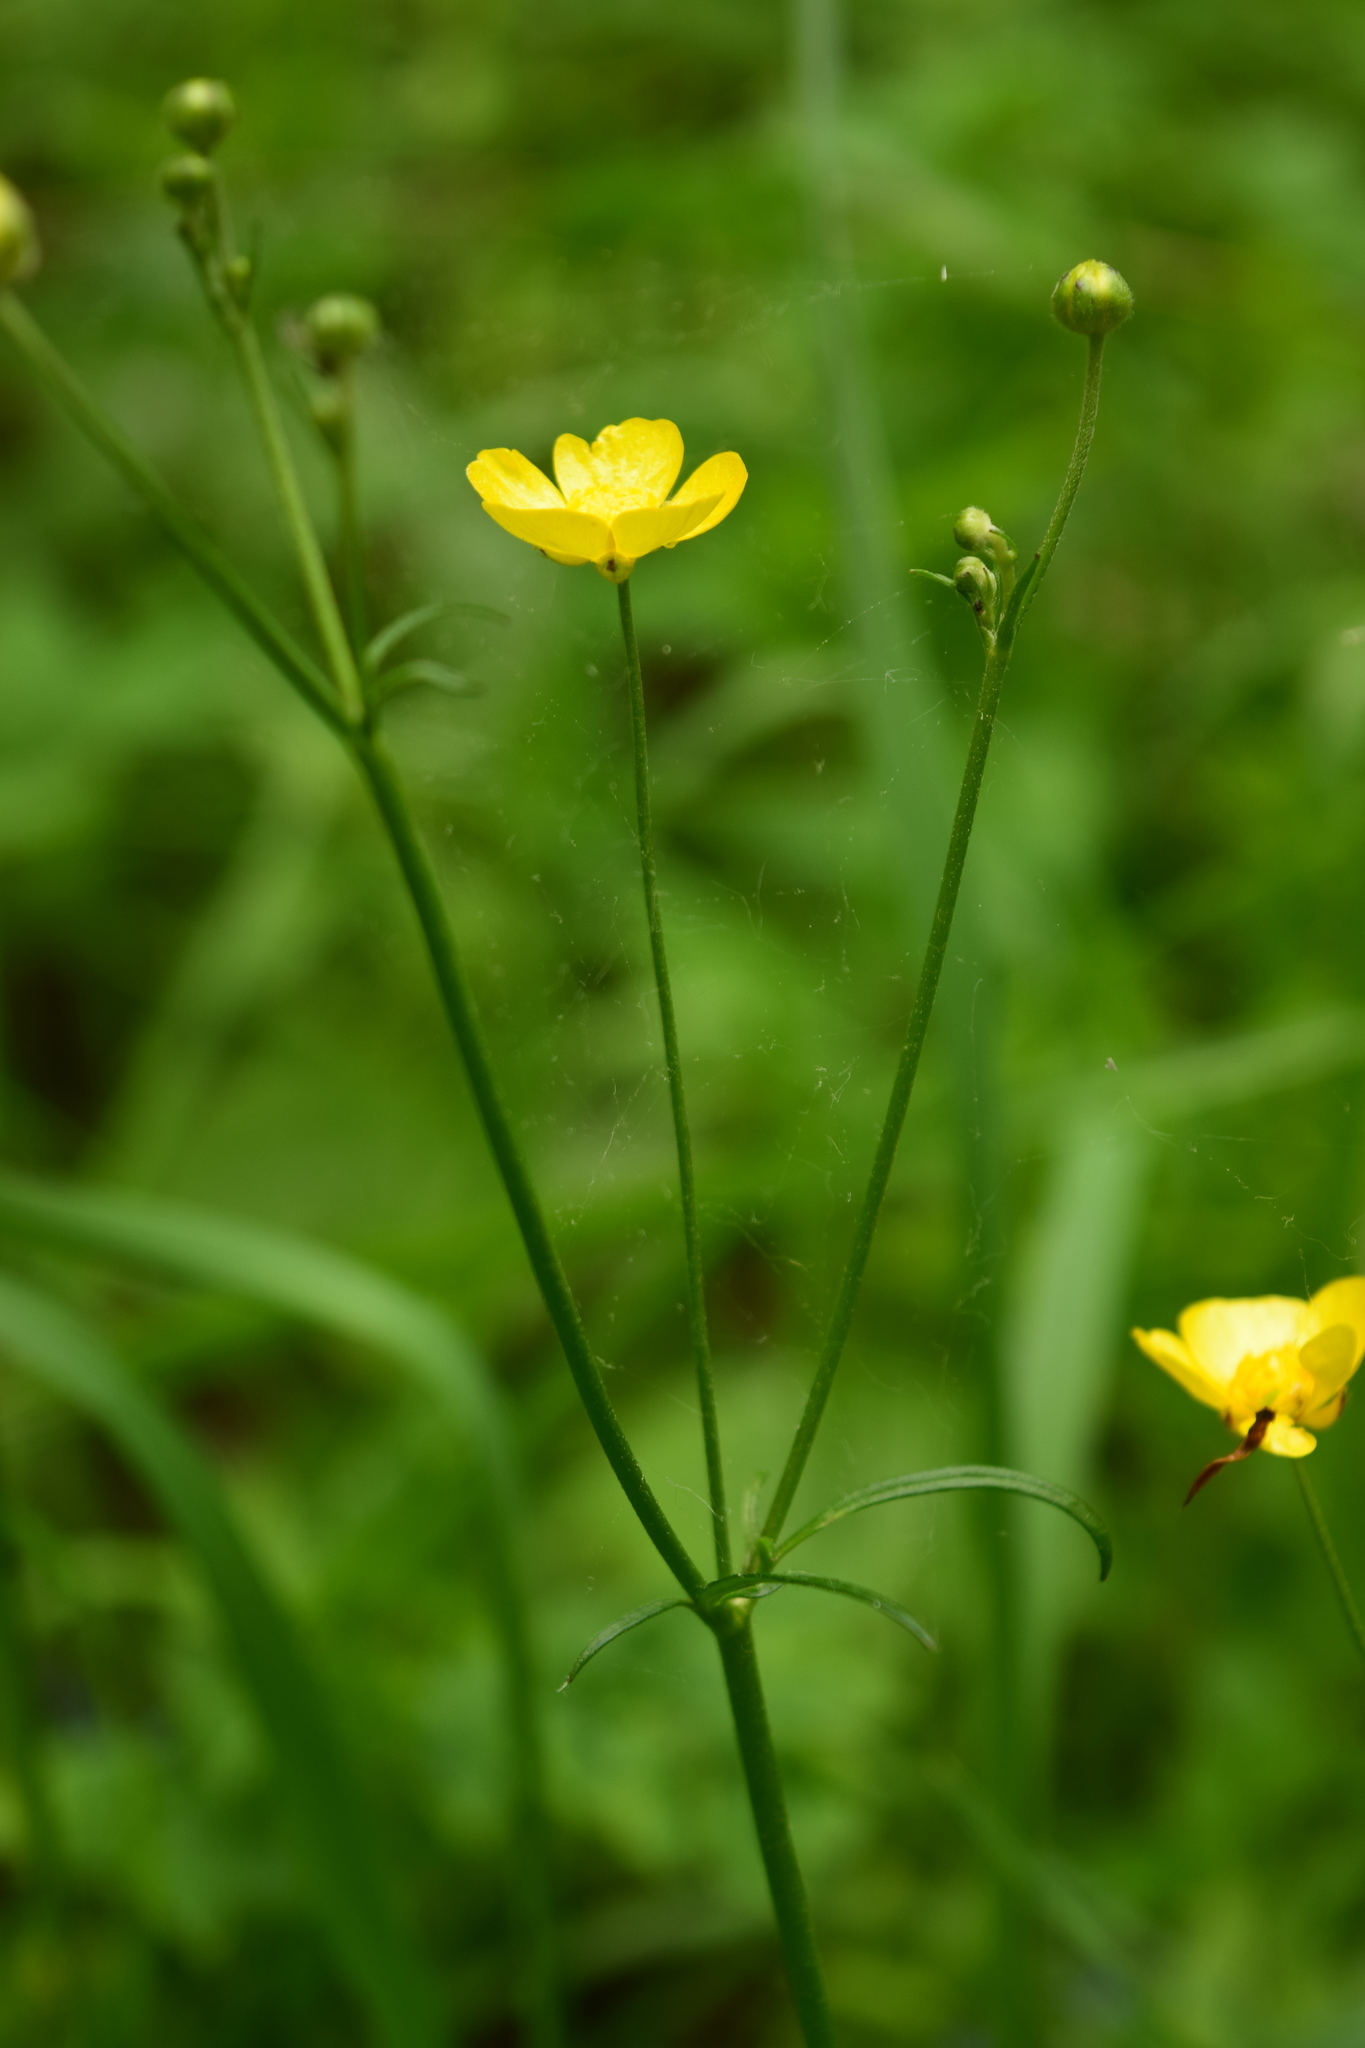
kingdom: Plantae
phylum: Tracheophyta
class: Magnoliopsida
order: Ranunculales
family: Ranunculaceae
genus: Ranunculus
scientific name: Ranunculus acris
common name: Meadow buttercup
